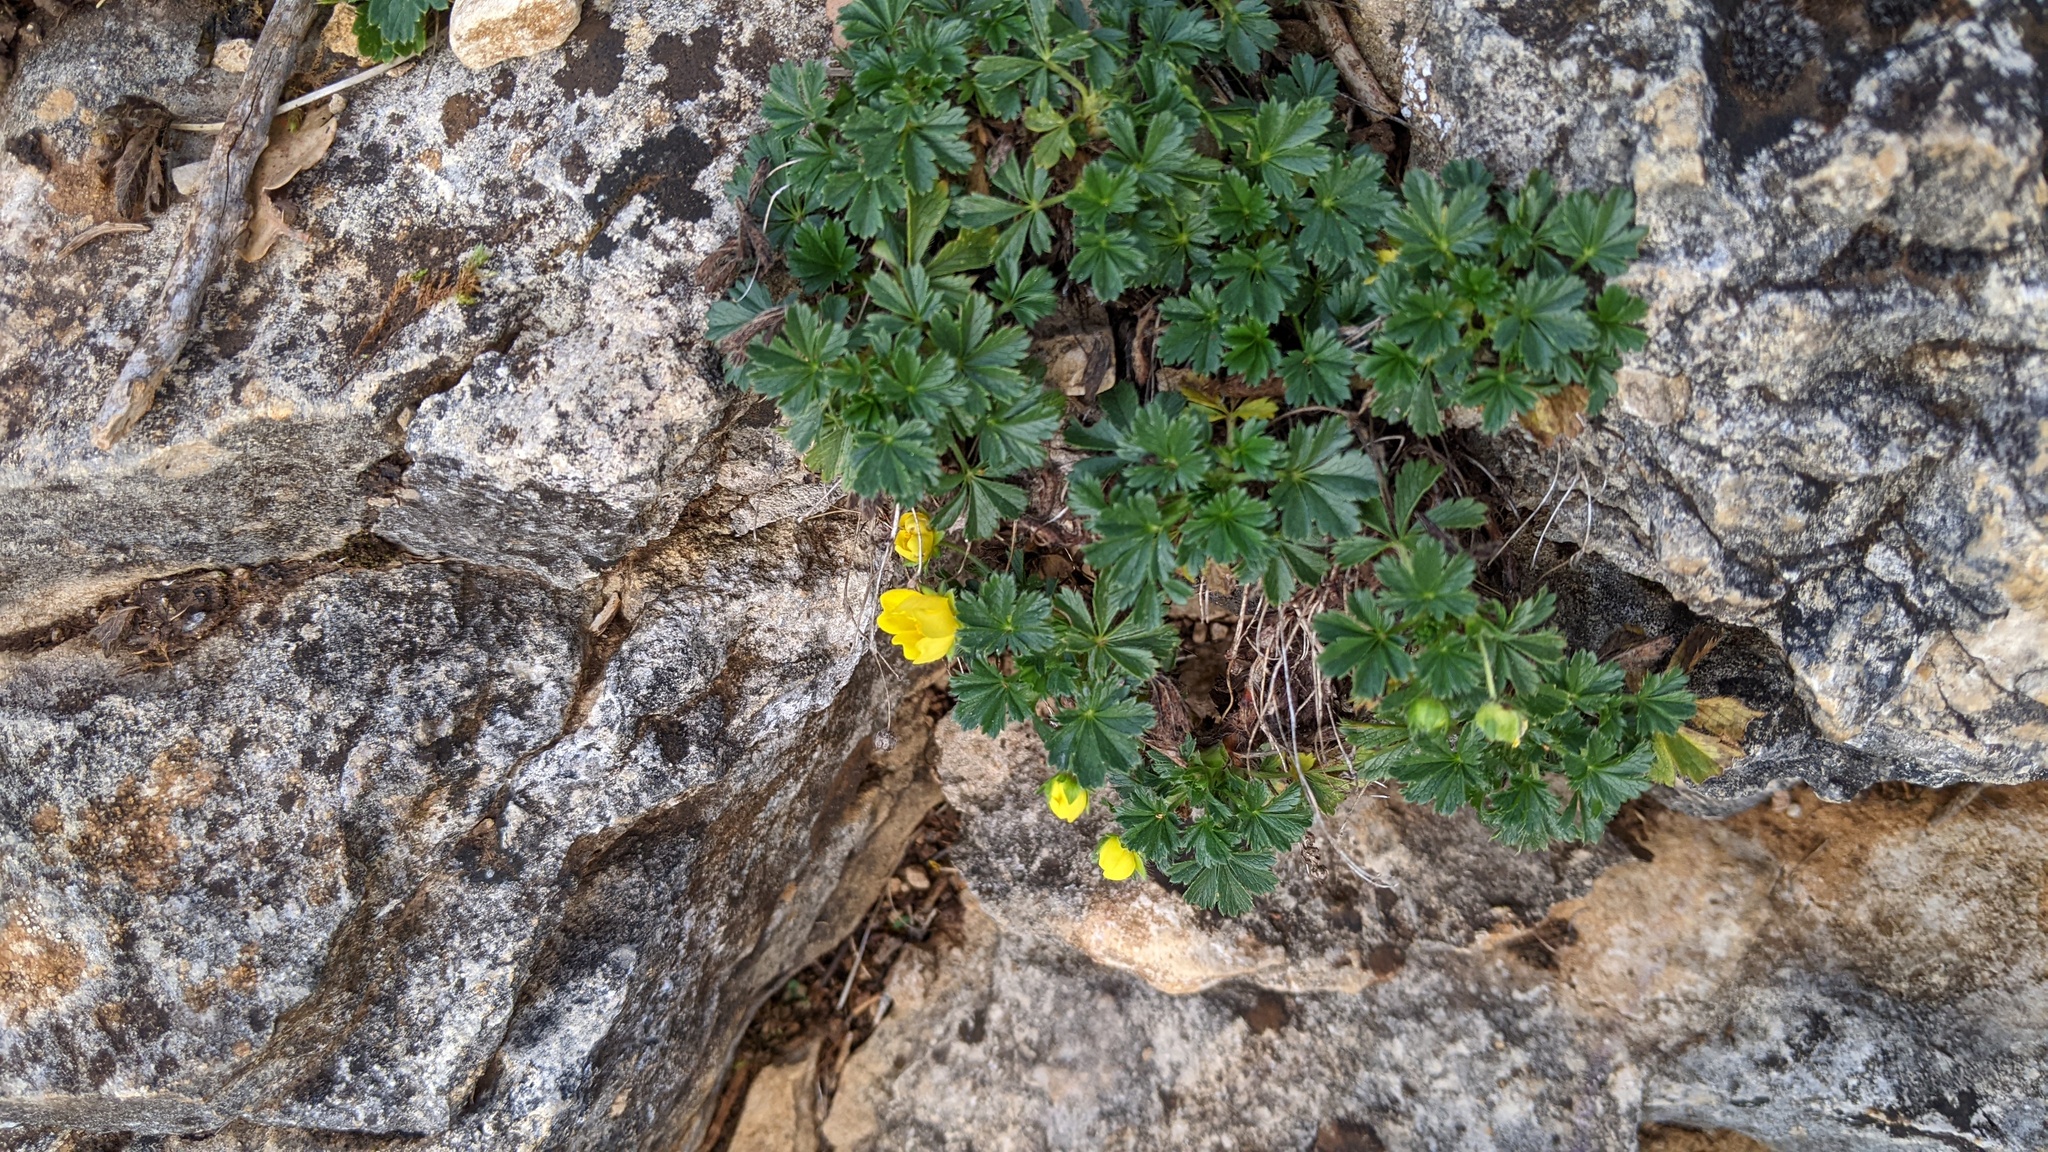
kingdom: Plantae
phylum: Tracheophyta
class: Magnoliopsida
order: Rosales
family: Rosaceae
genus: Potentilla
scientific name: Potentilla verna
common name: Spring cinquefoil
